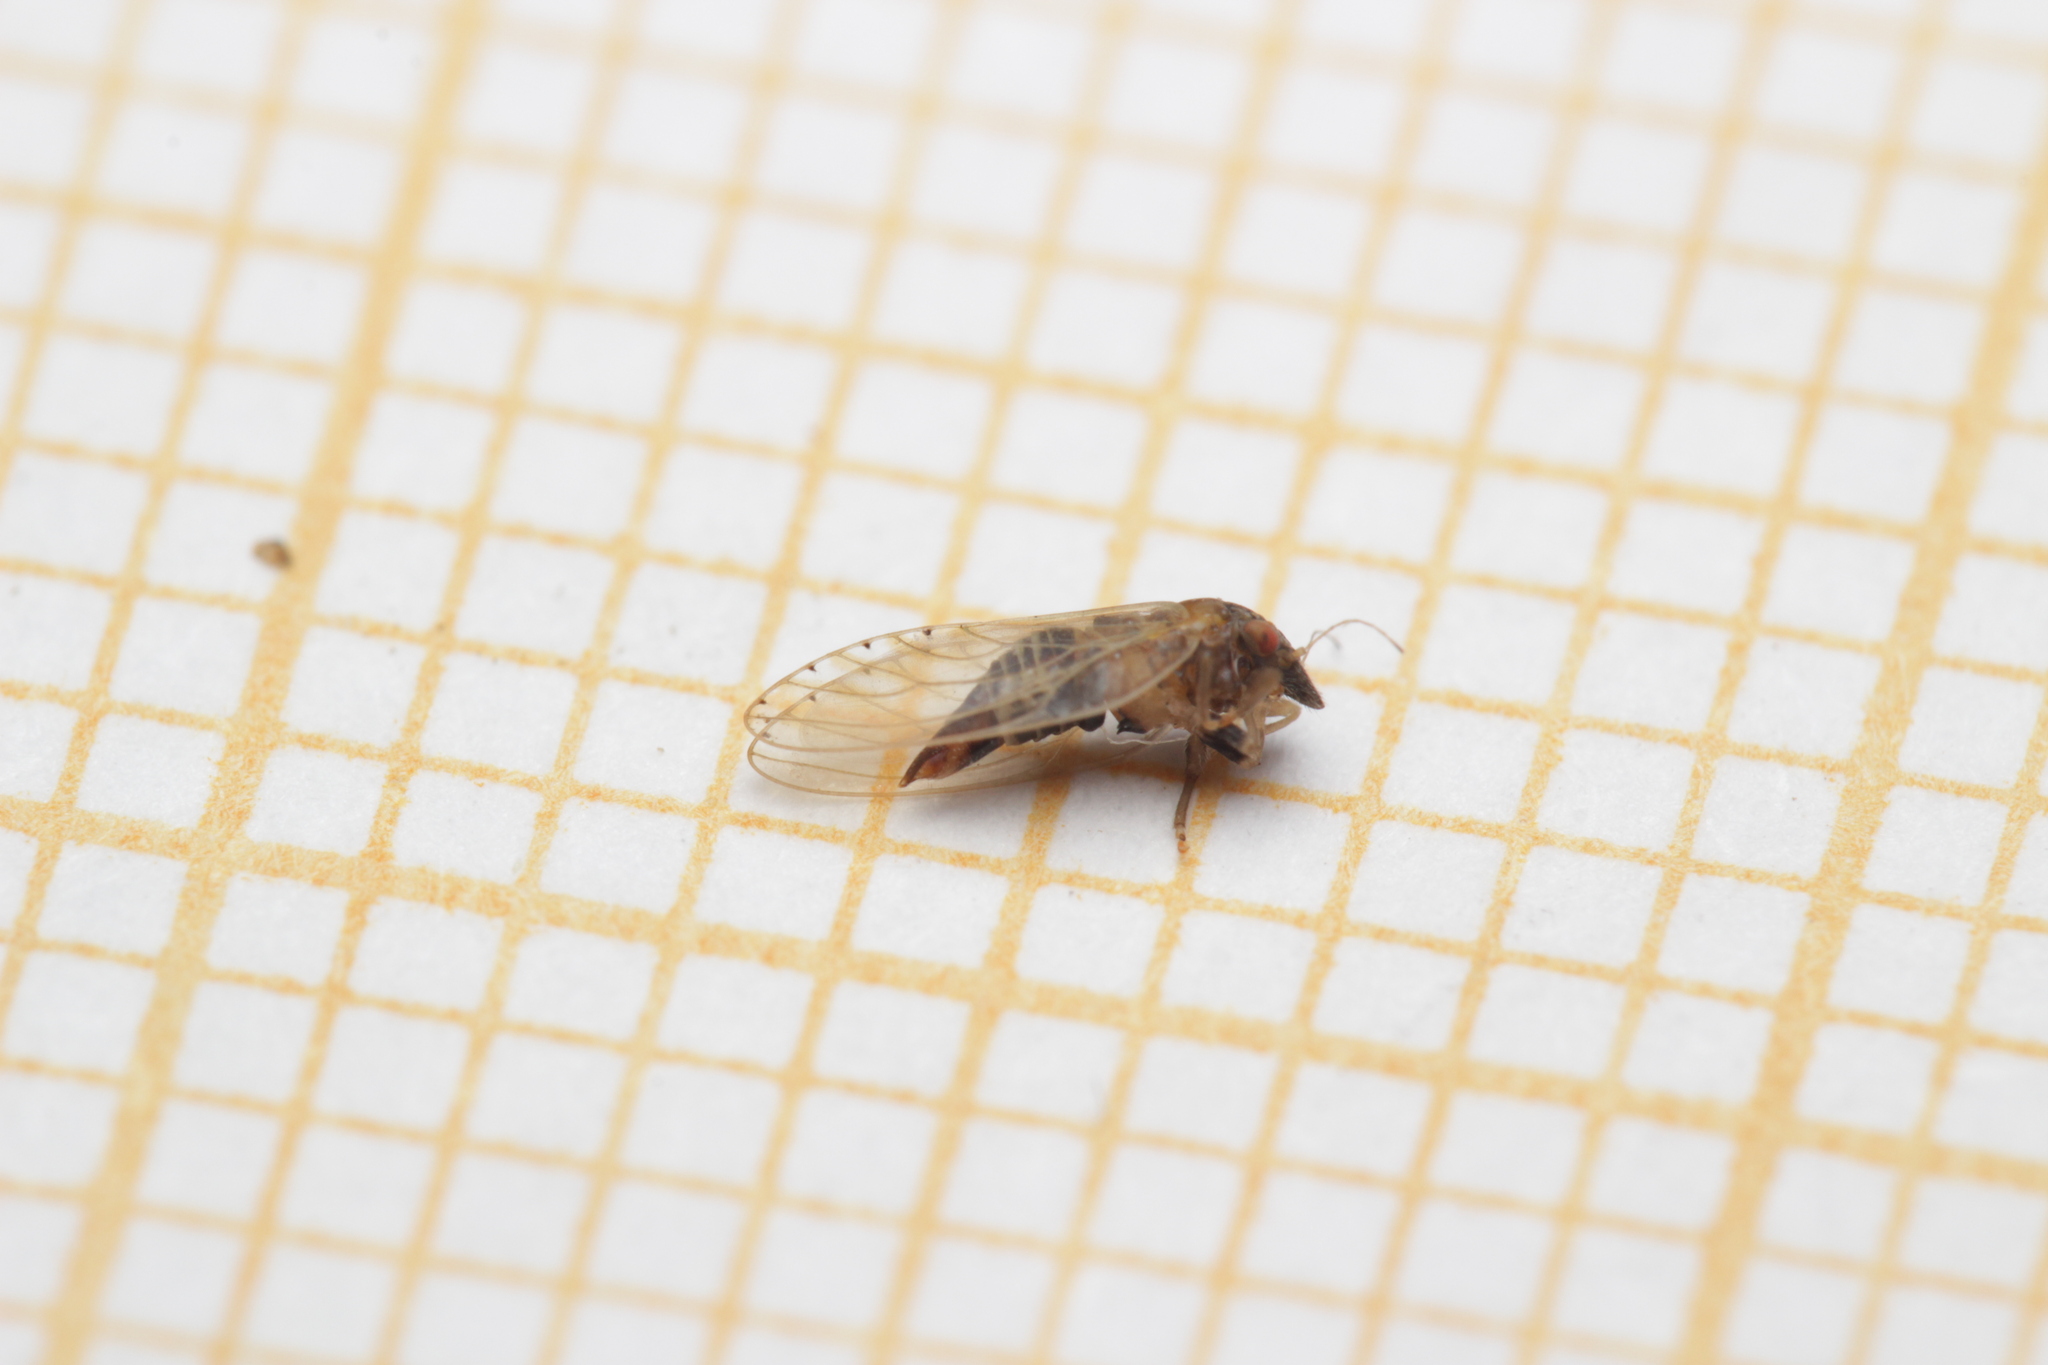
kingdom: Animalia
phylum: Arthropoda
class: Insecta
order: Hemiptera
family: Psyllidae
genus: Spanioneura
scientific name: Spanioneura fonscolombii
